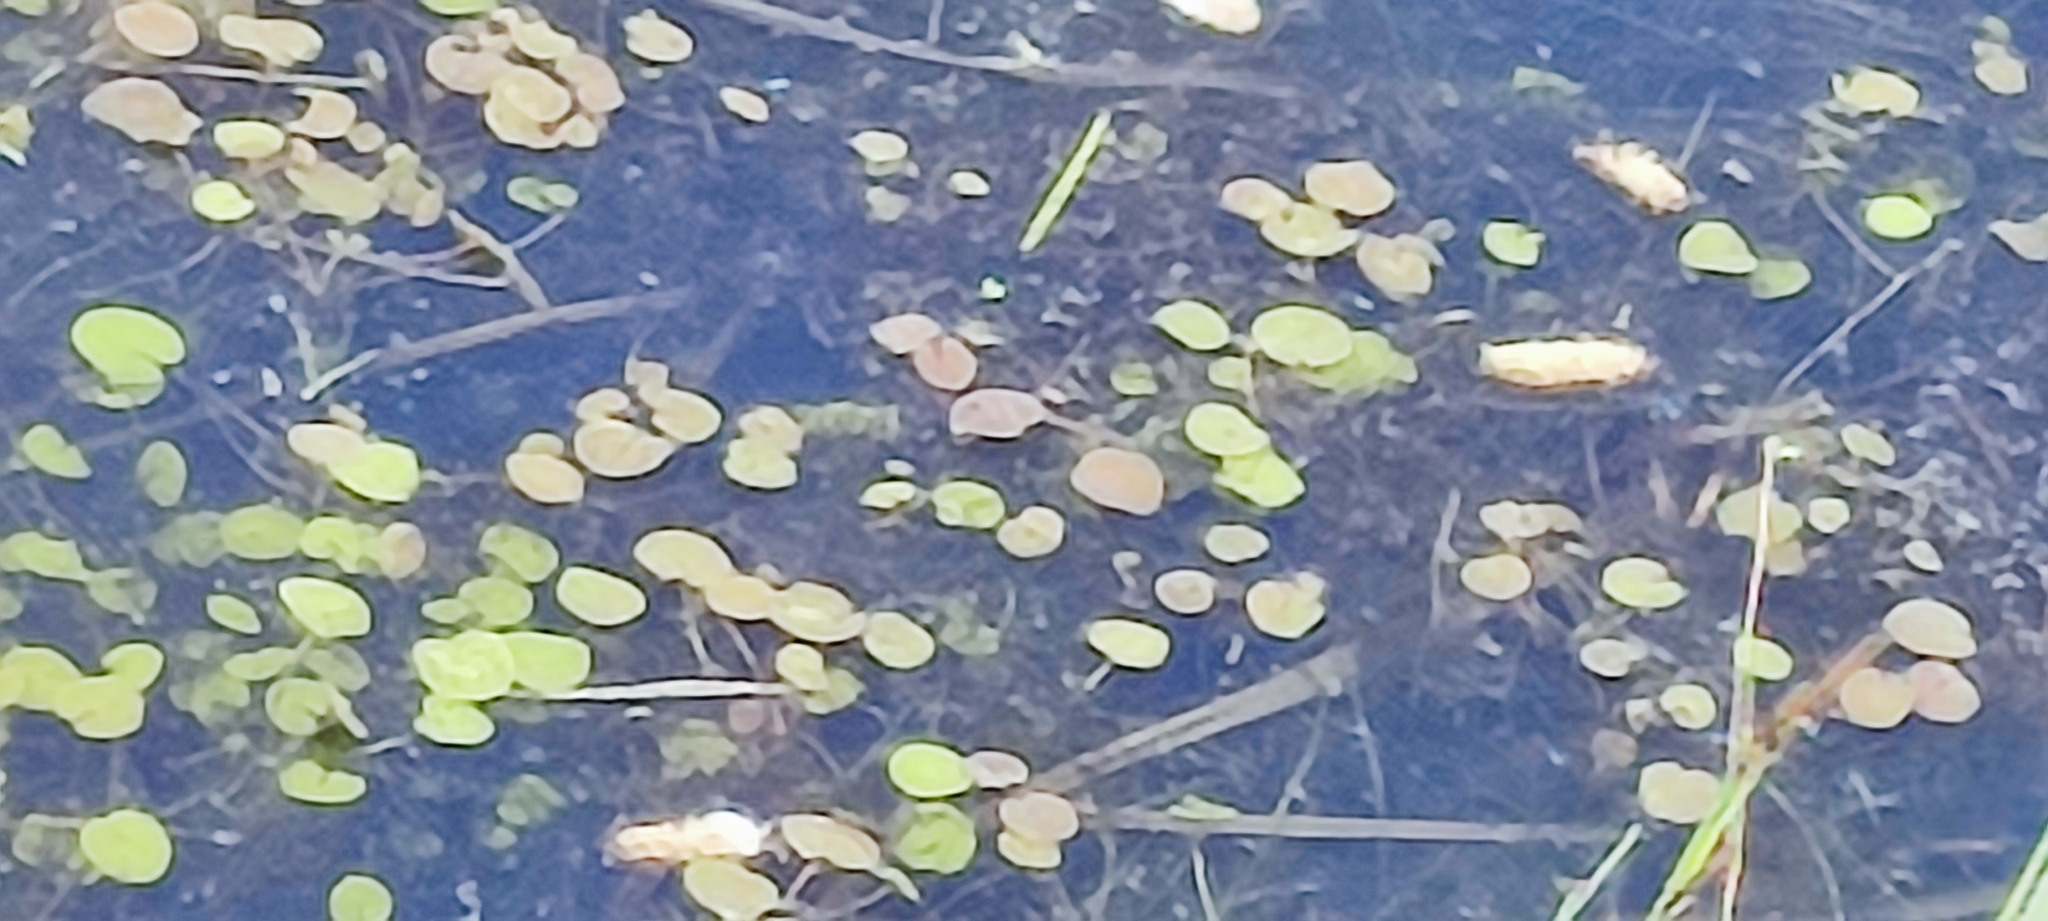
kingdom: Plantae
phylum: Tracheophyta
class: Liliopsida
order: Alismatales
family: Hydrocharitaceae
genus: Hydrocharis
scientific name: Hydrocharis morsus-ranae
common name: Frogbit
